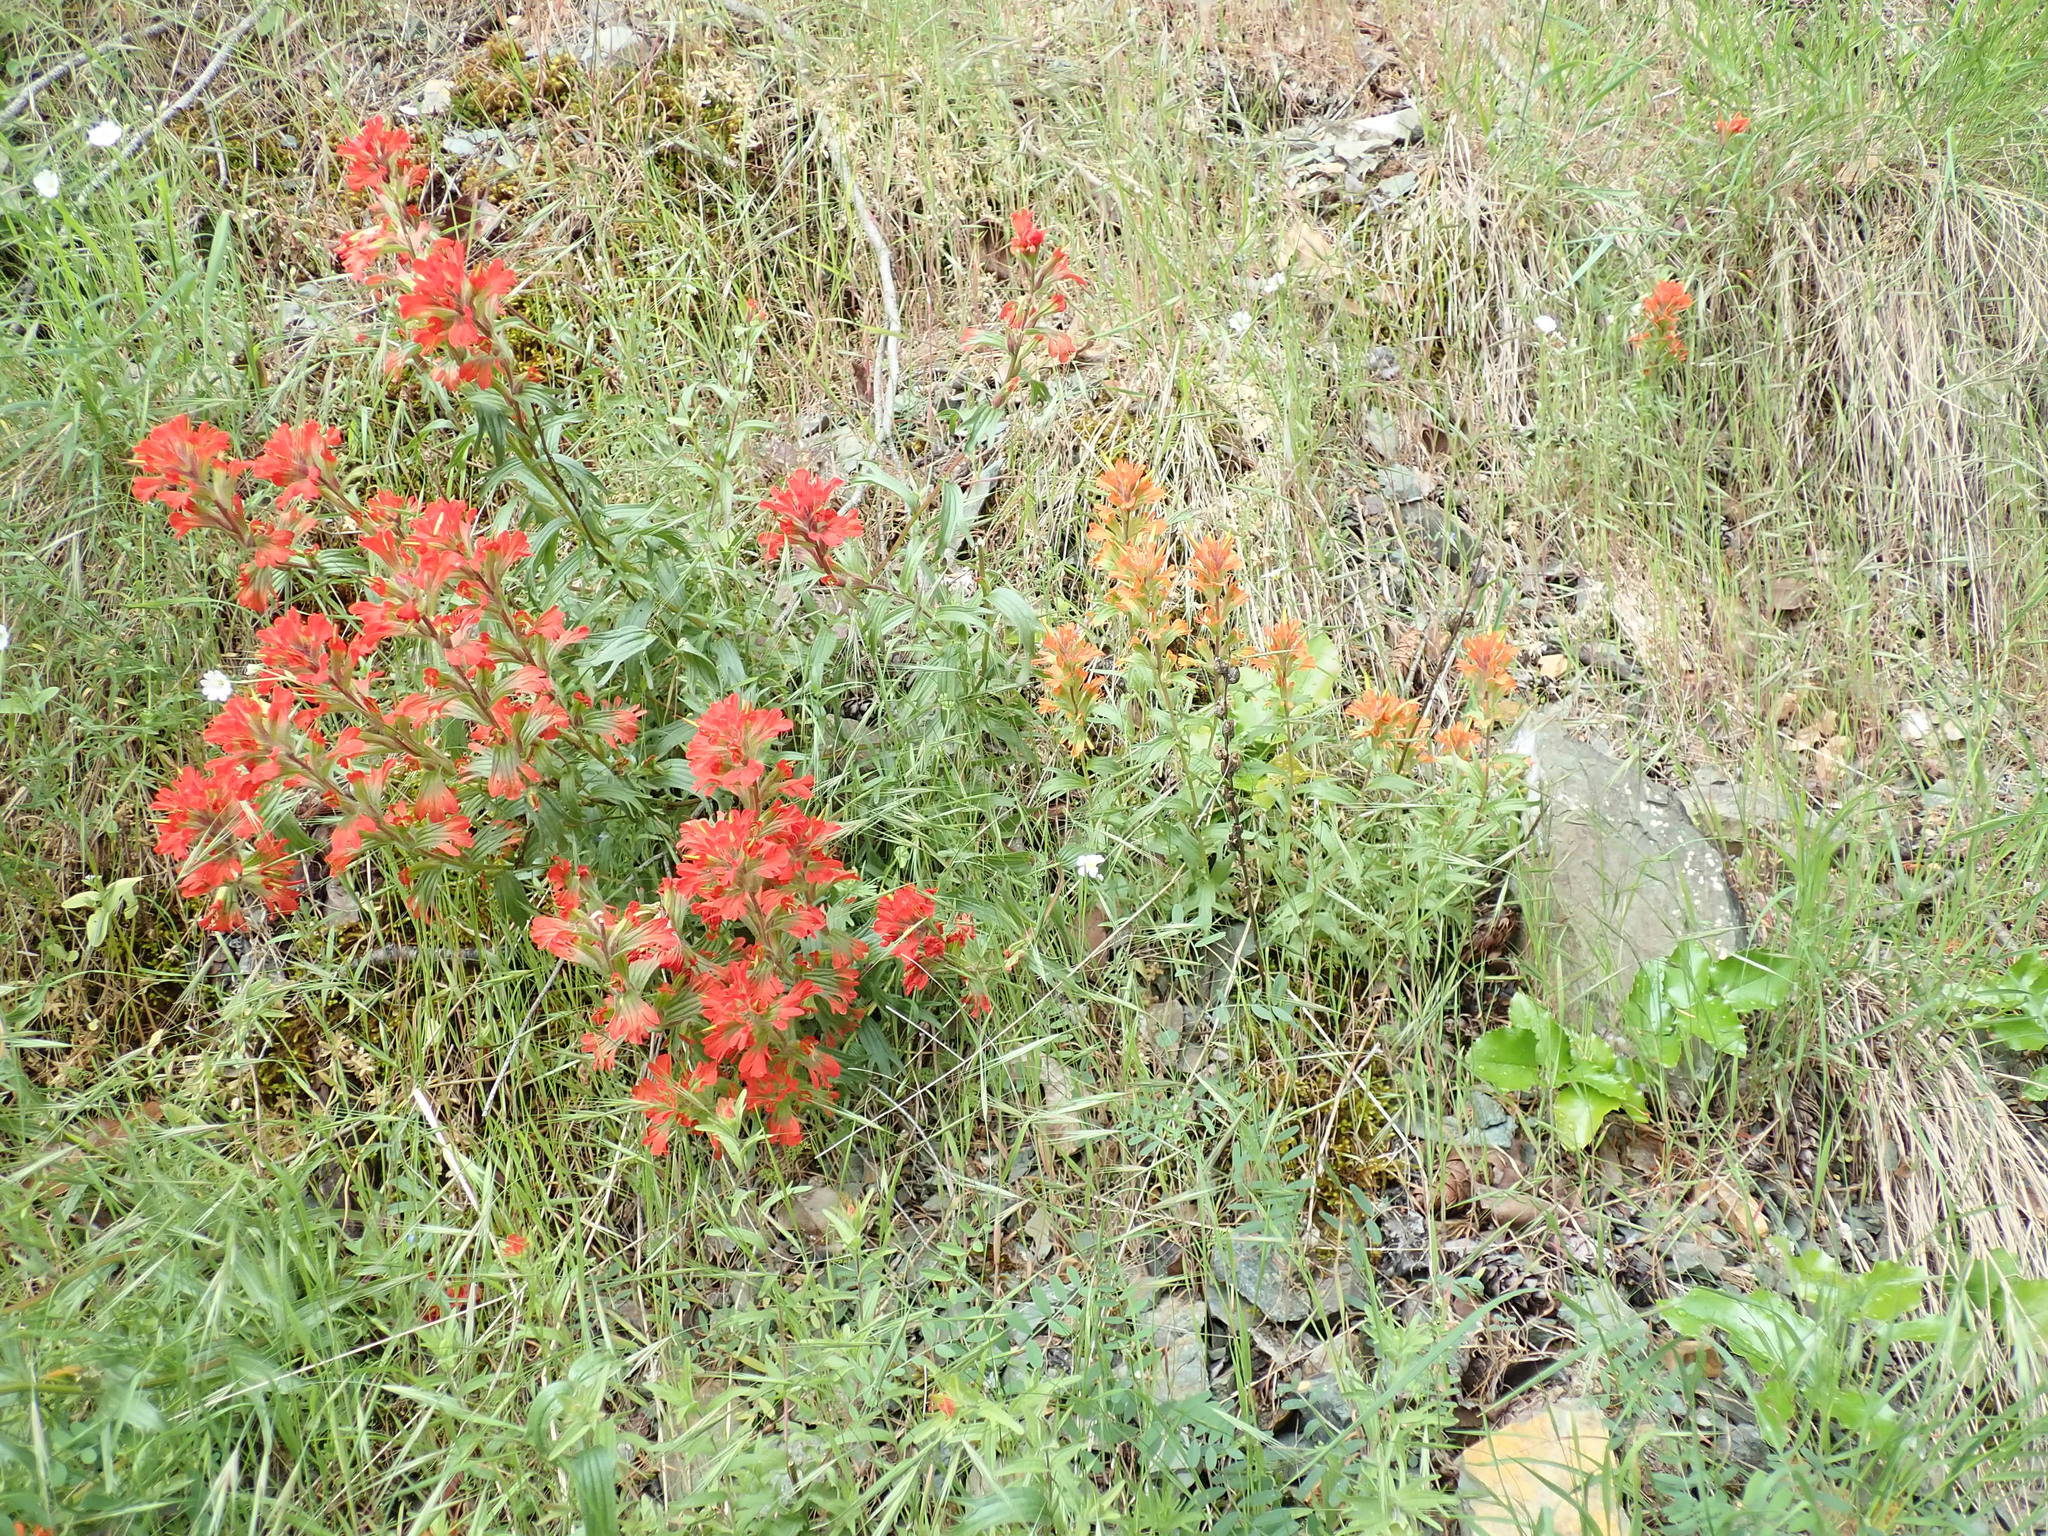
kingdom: Plantae
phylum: Tracheophyta
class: Magnoliopsida
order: Lamiales
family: Orobanchaceae
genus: Castilleja
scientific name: Castilleja hispida
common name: Bristly paintbrush
